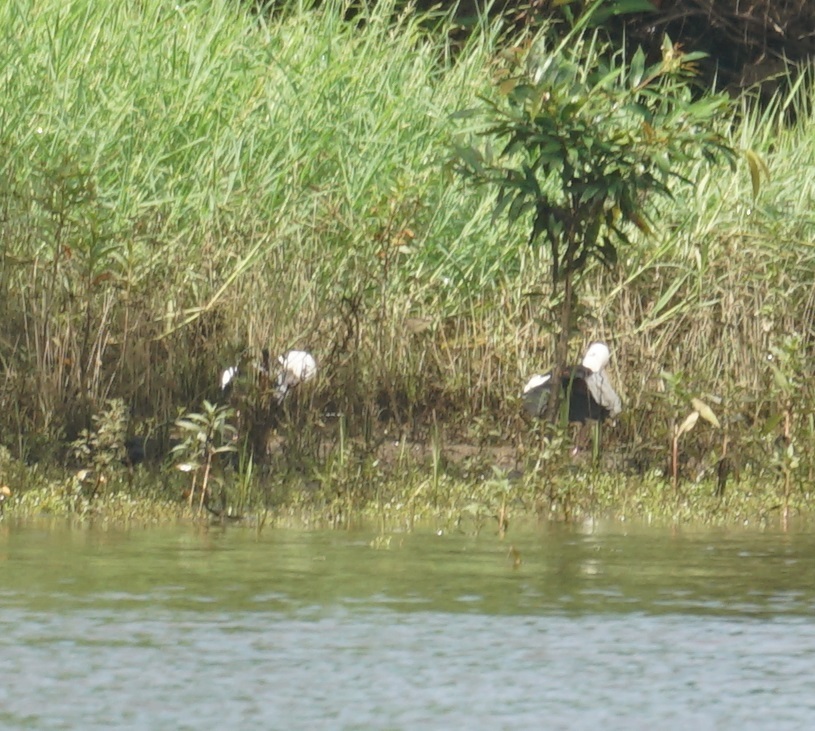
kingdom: Animalia
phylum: Chordata
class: Aves
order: Anseriformes
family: Anatidae
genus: Radjah
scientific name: Radjah radjah
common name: Radjah shelduck
